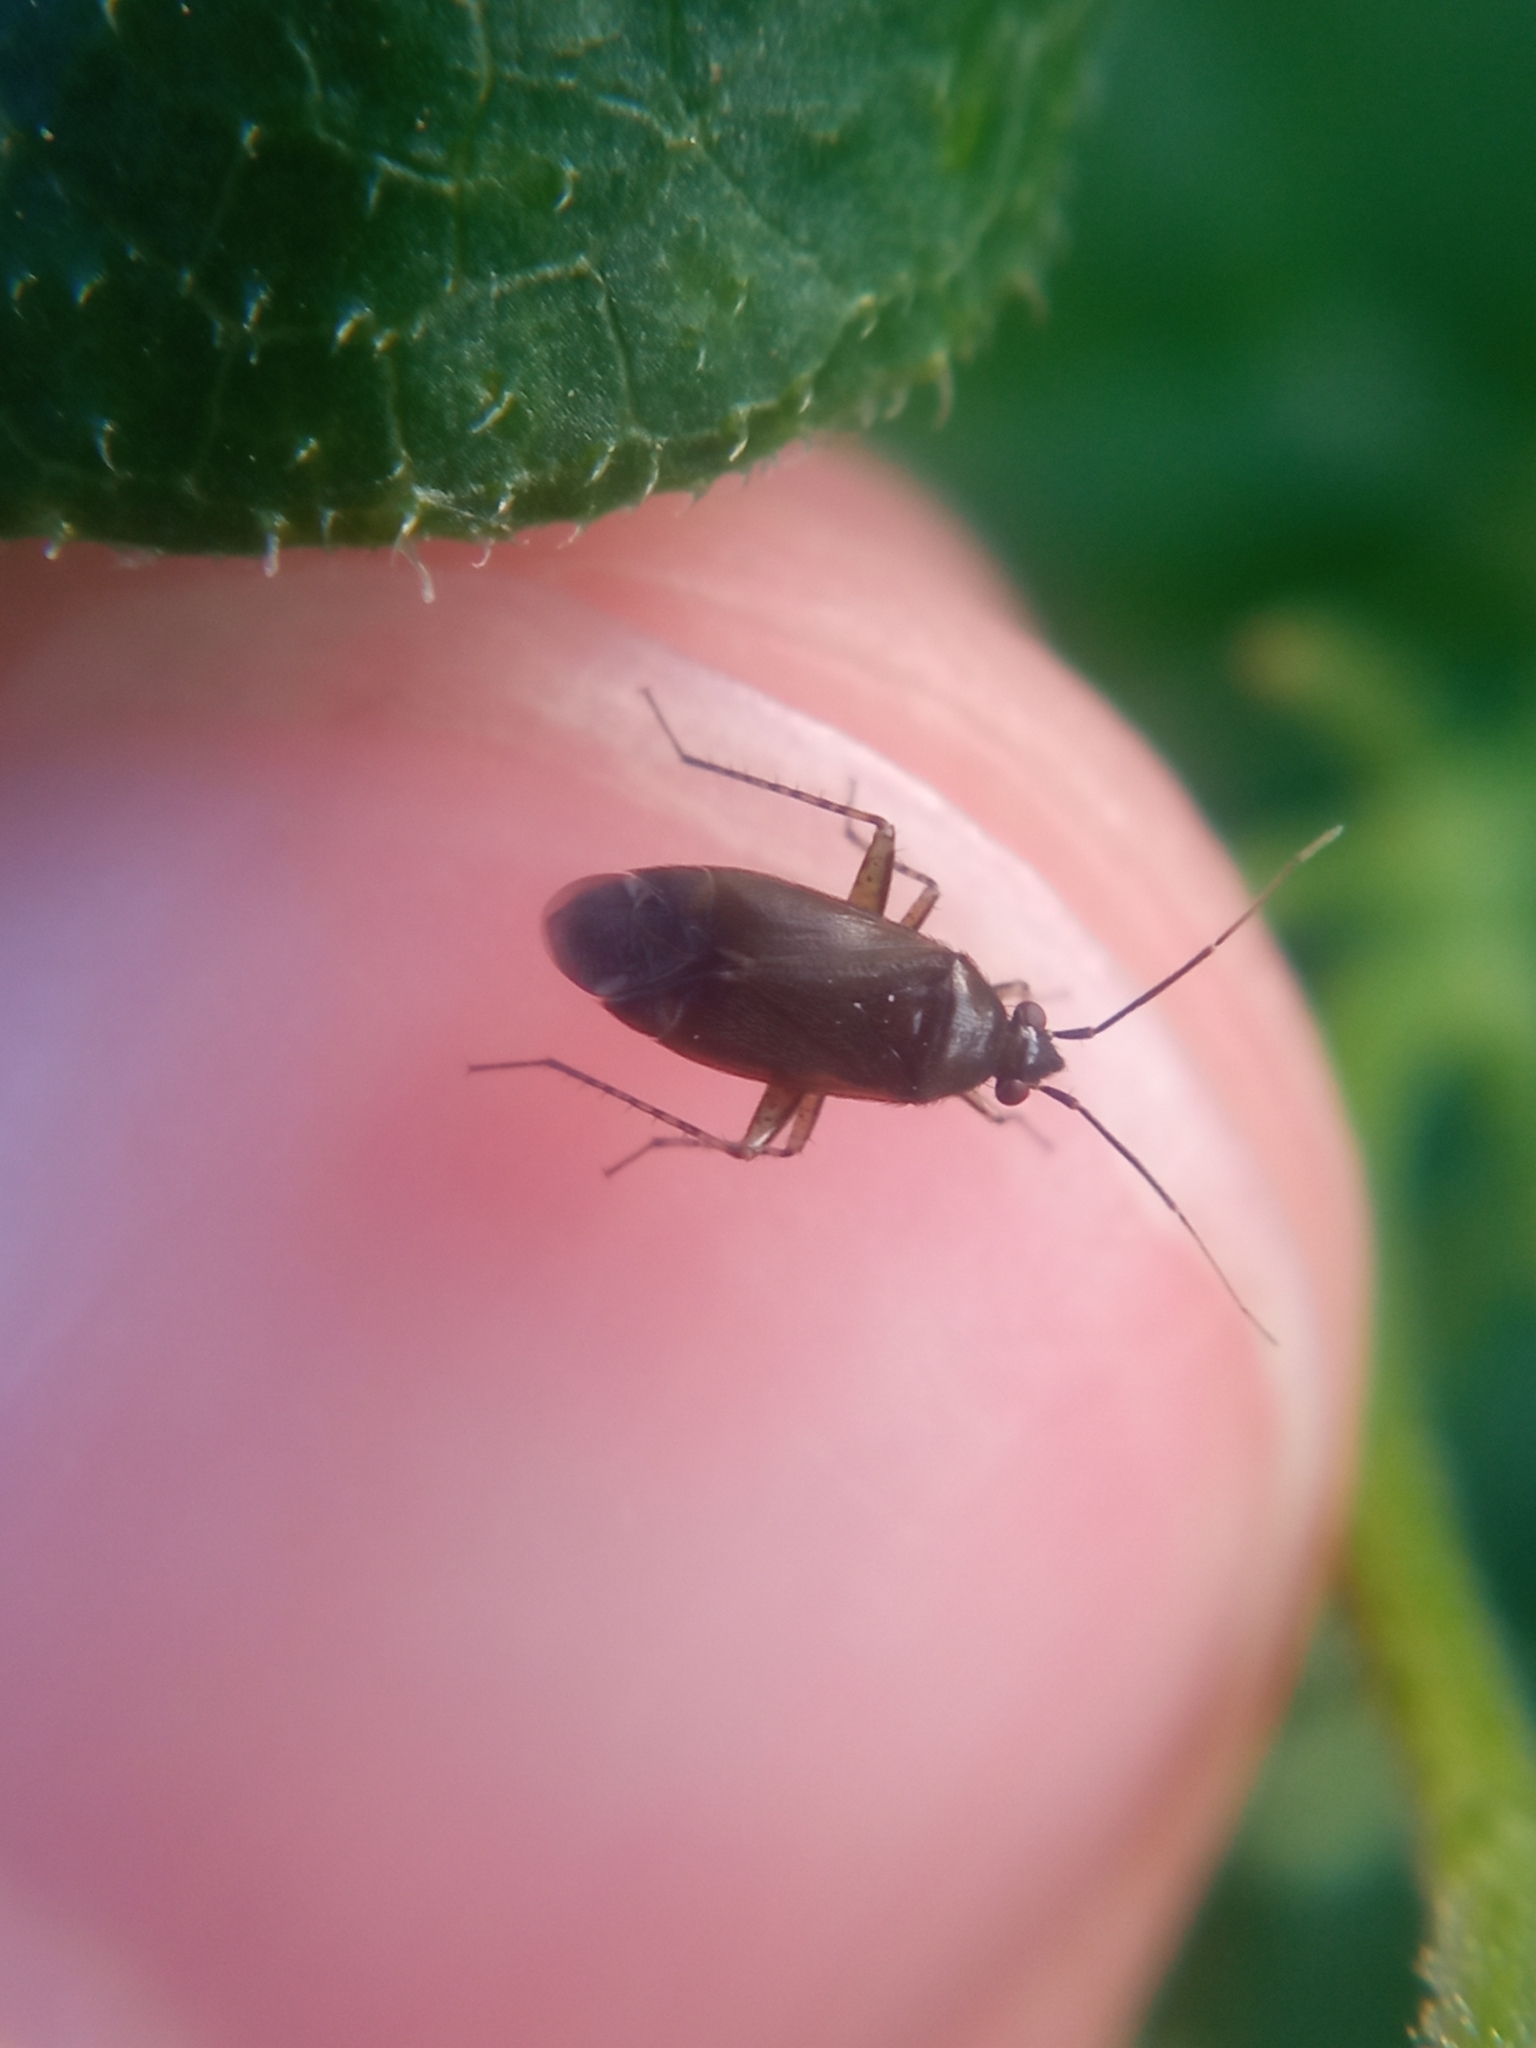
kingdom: Animalia
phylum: Arthropoda
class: Insecta
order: Hemiptera
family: Miridae
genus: Plagiognathus
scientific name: Plagiognathus arbustorum
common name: Plant bug
